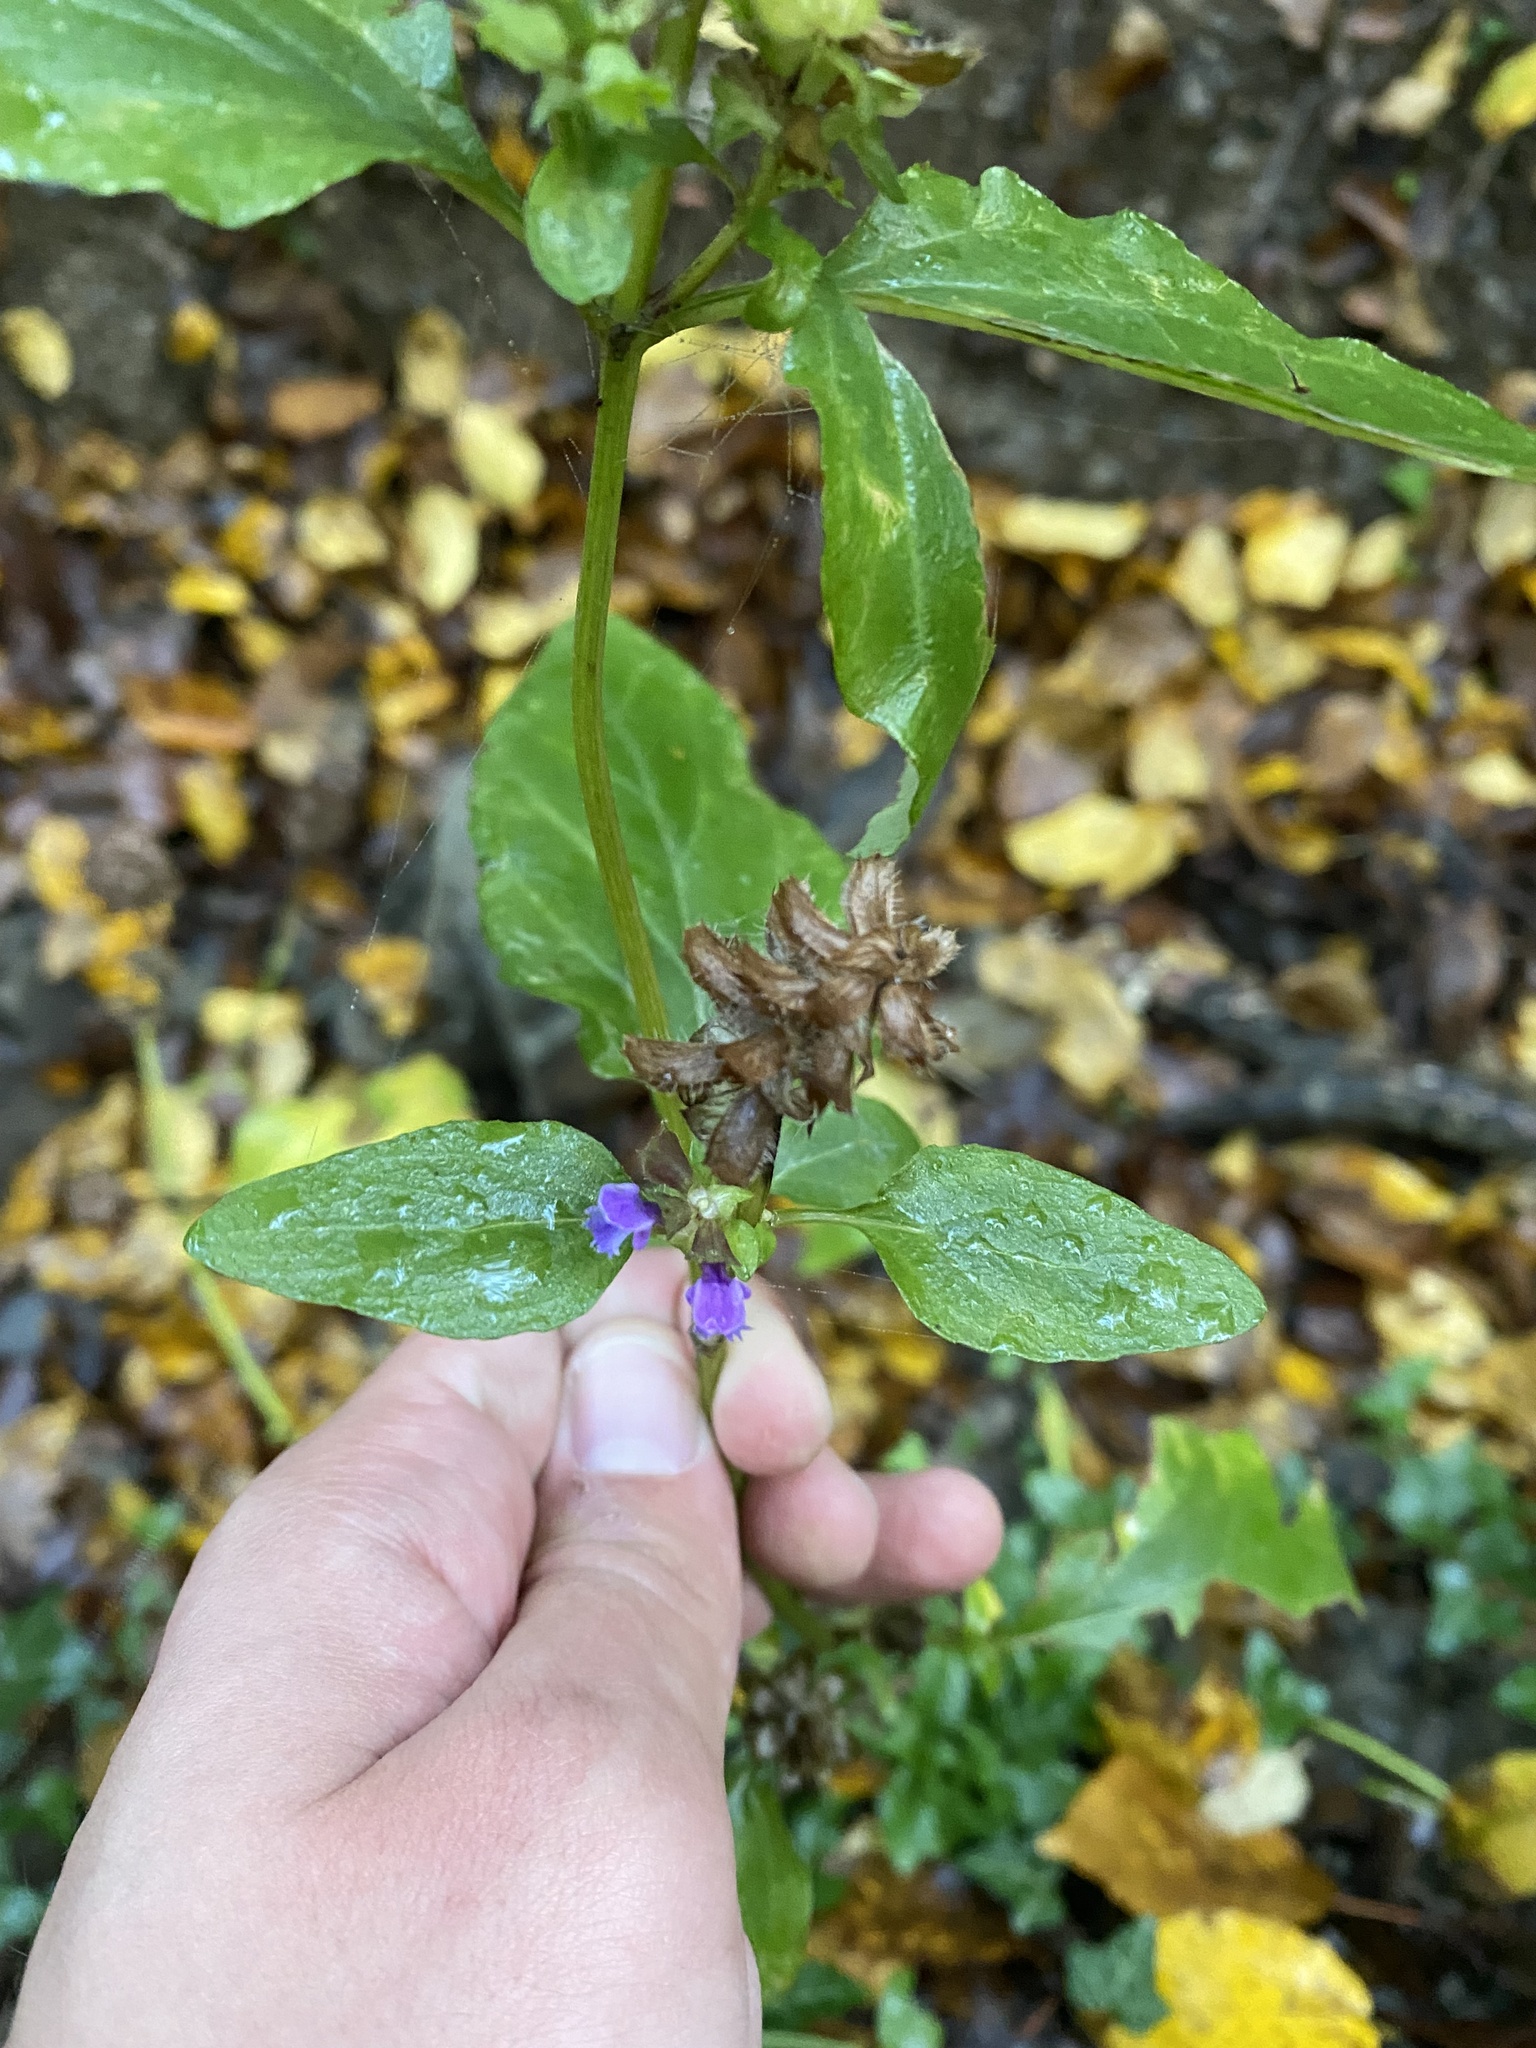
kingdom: Plantae
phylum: Tracheophyta
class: Magnoliopsida
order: Lamiales
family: Lamiaceae
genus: Prunella
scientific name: Prunella vulgaris
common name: Heal-all
